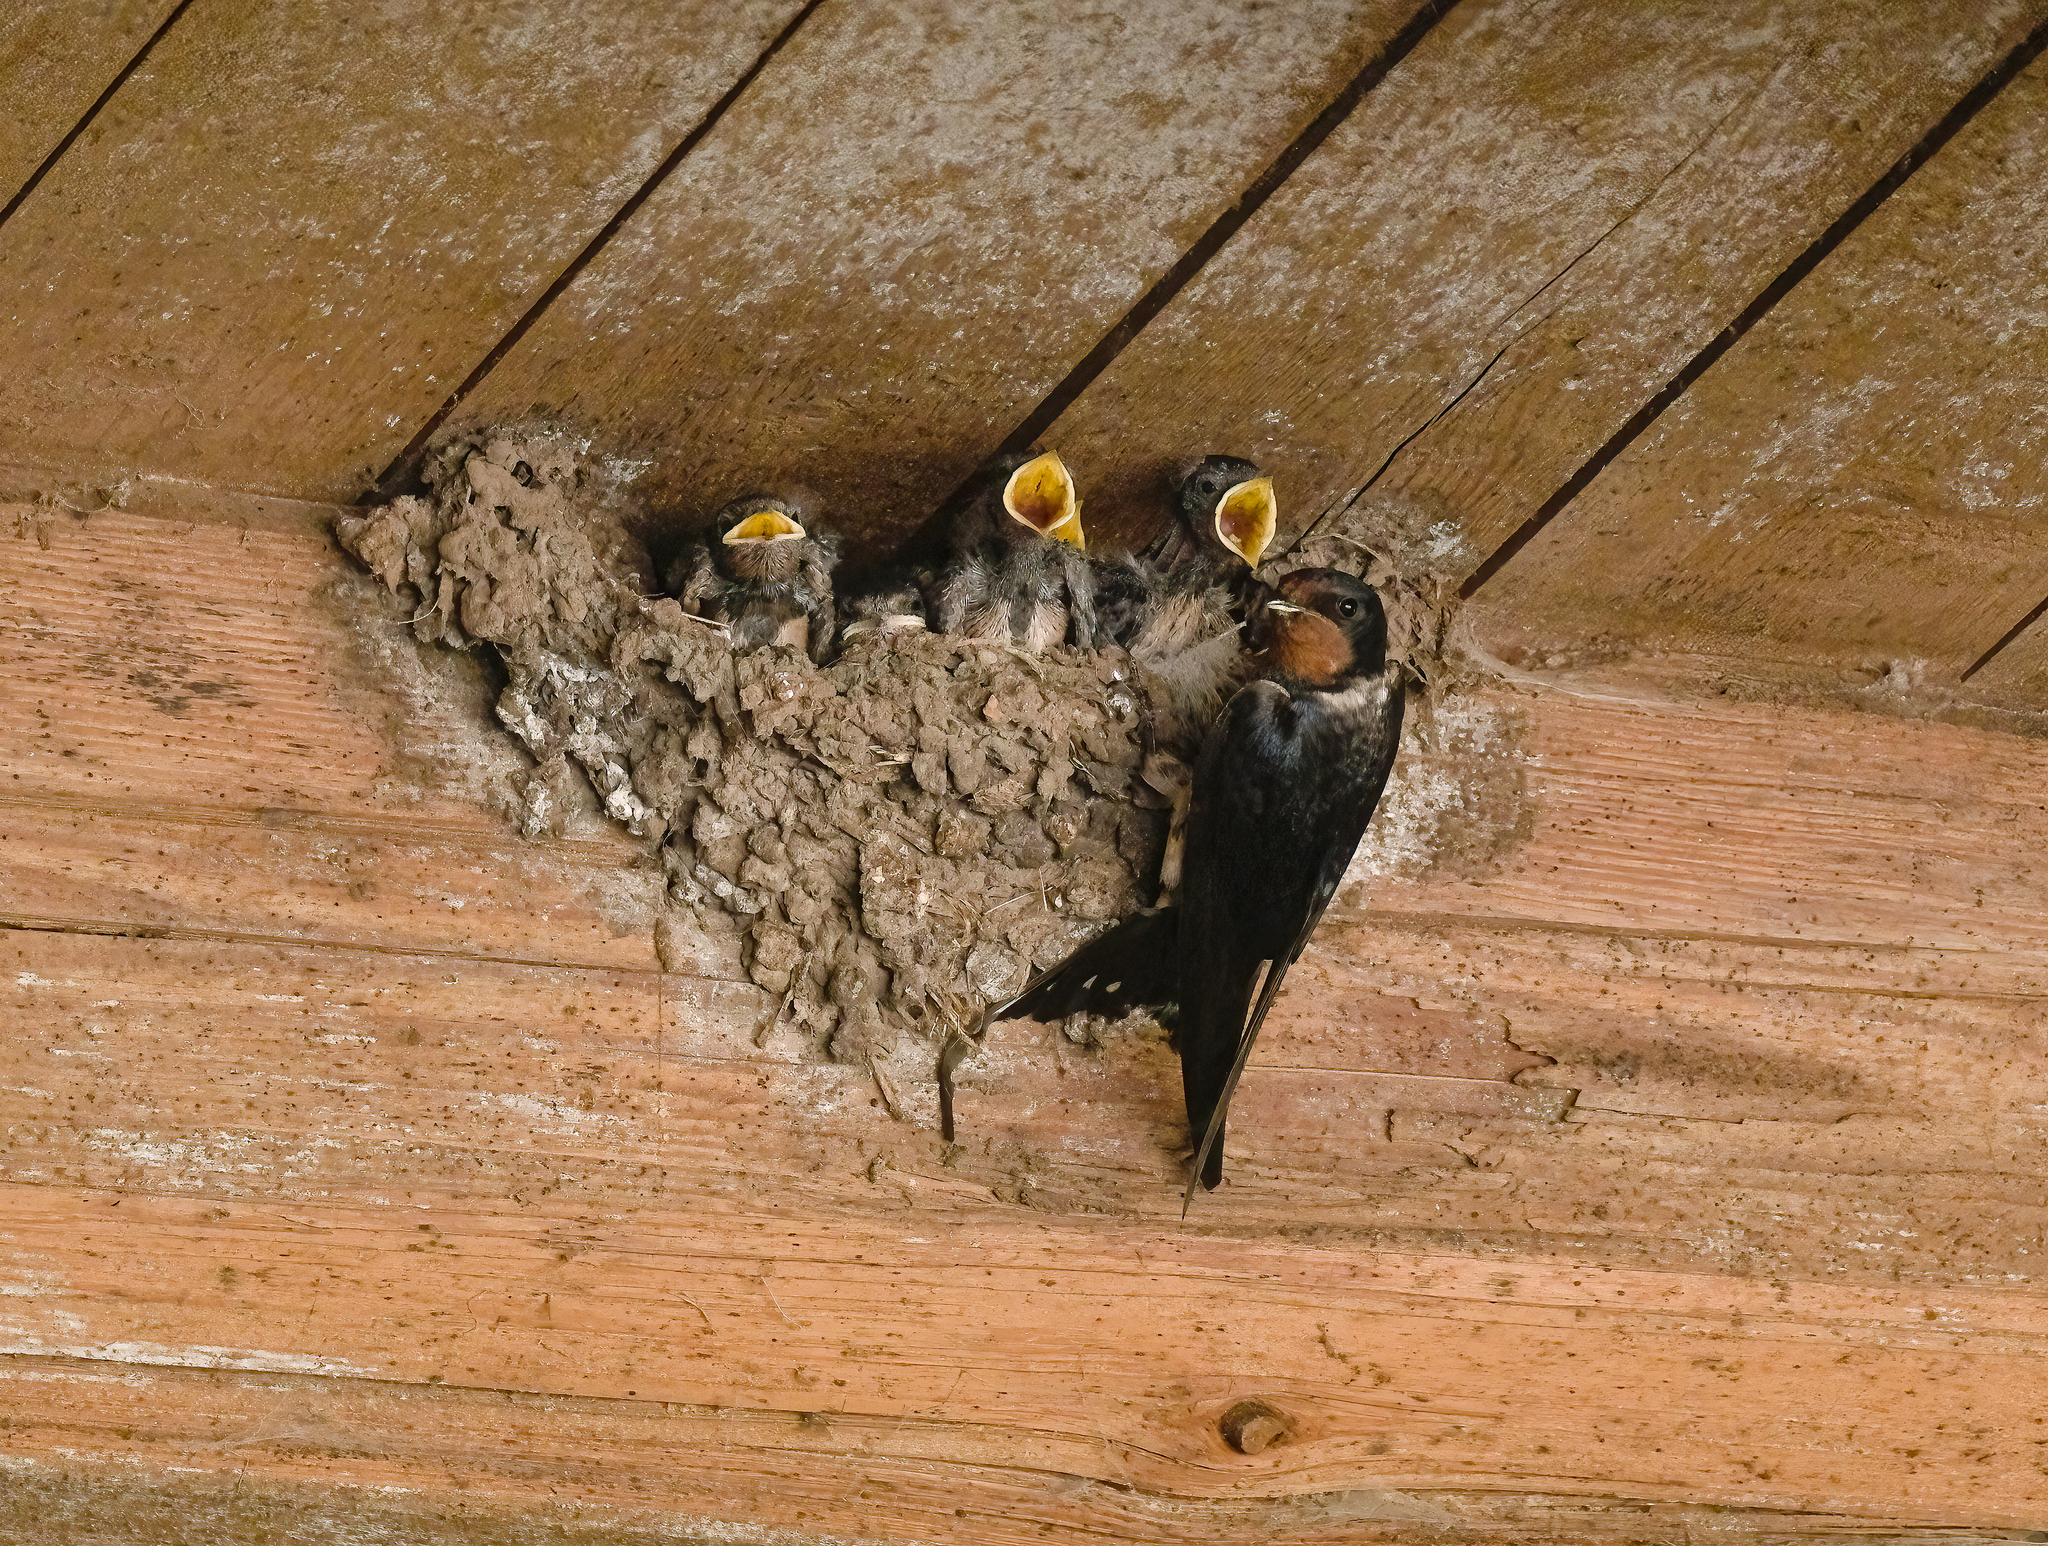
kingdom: Animalia
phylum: Chordata
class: Aves
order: Passeriformes
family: Hirundinidae
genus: Hirundo
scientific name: Hirundo rustica
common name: Barn swallow
